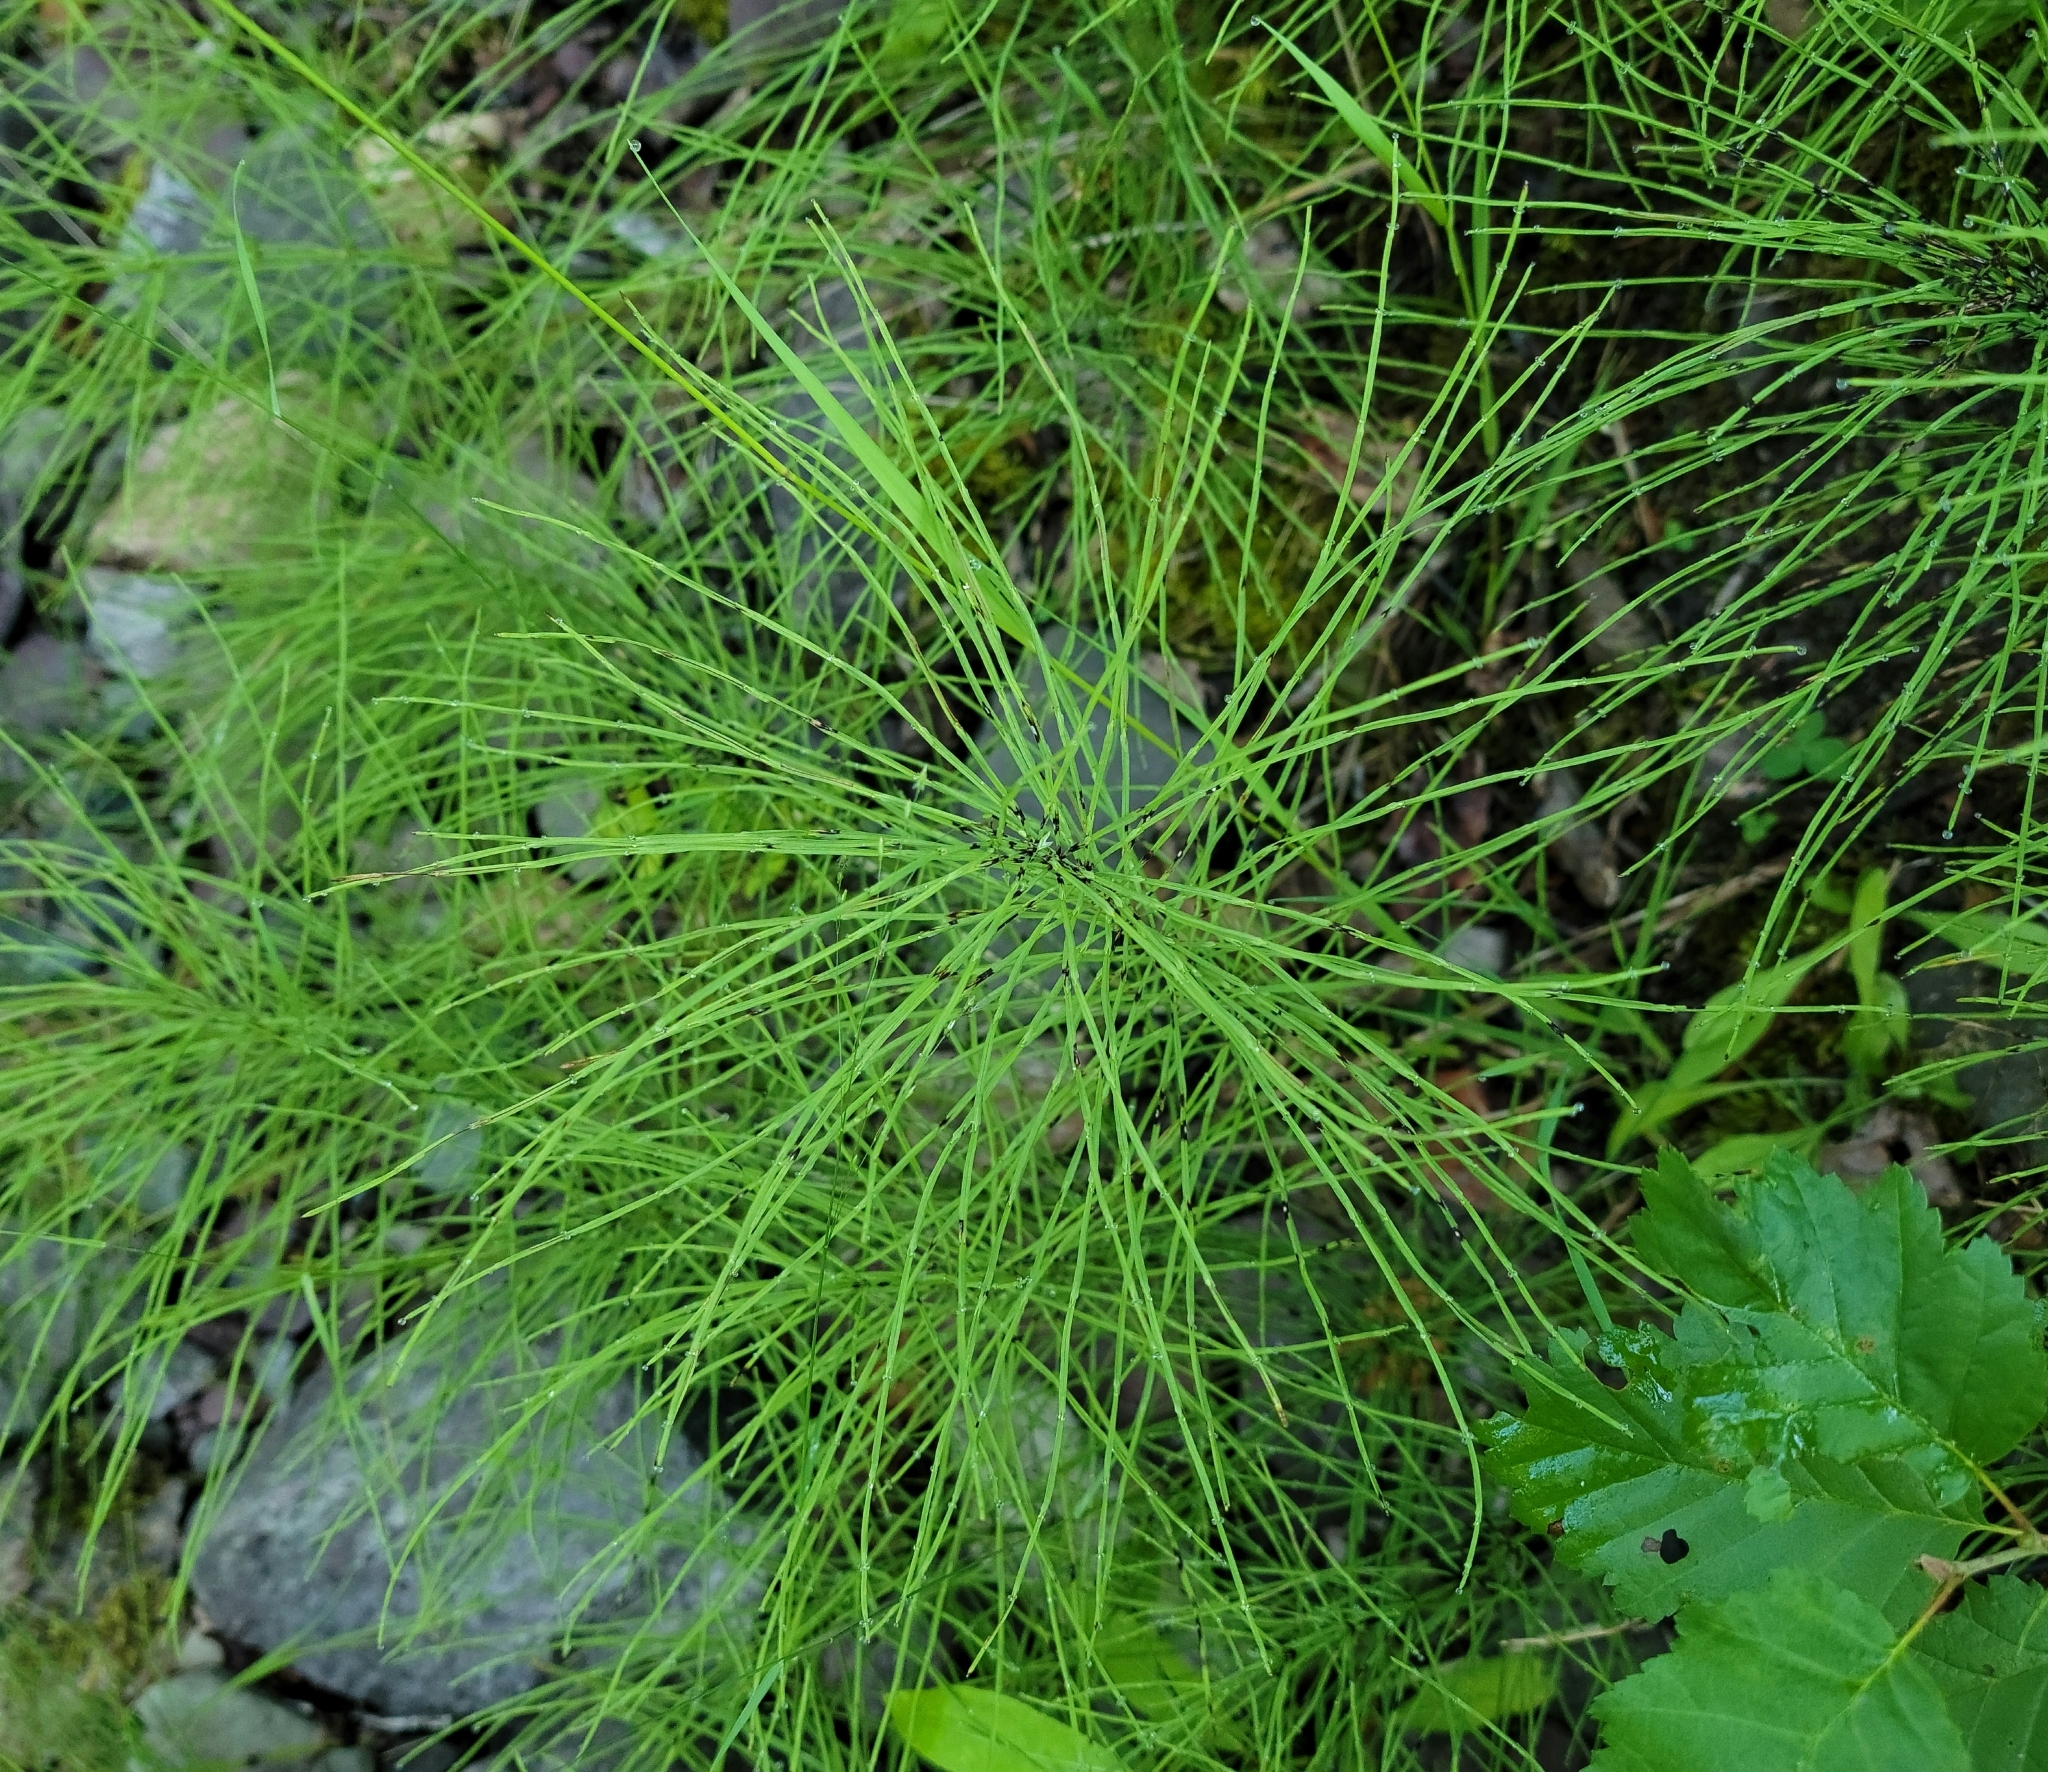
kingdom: Plantae
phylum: Tracheophyta
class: Polypodiopsida
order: Equisetales
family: Equisetaceae
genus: Equisetum
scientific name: Equisetum sylvaticum
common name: Wood horsetail
